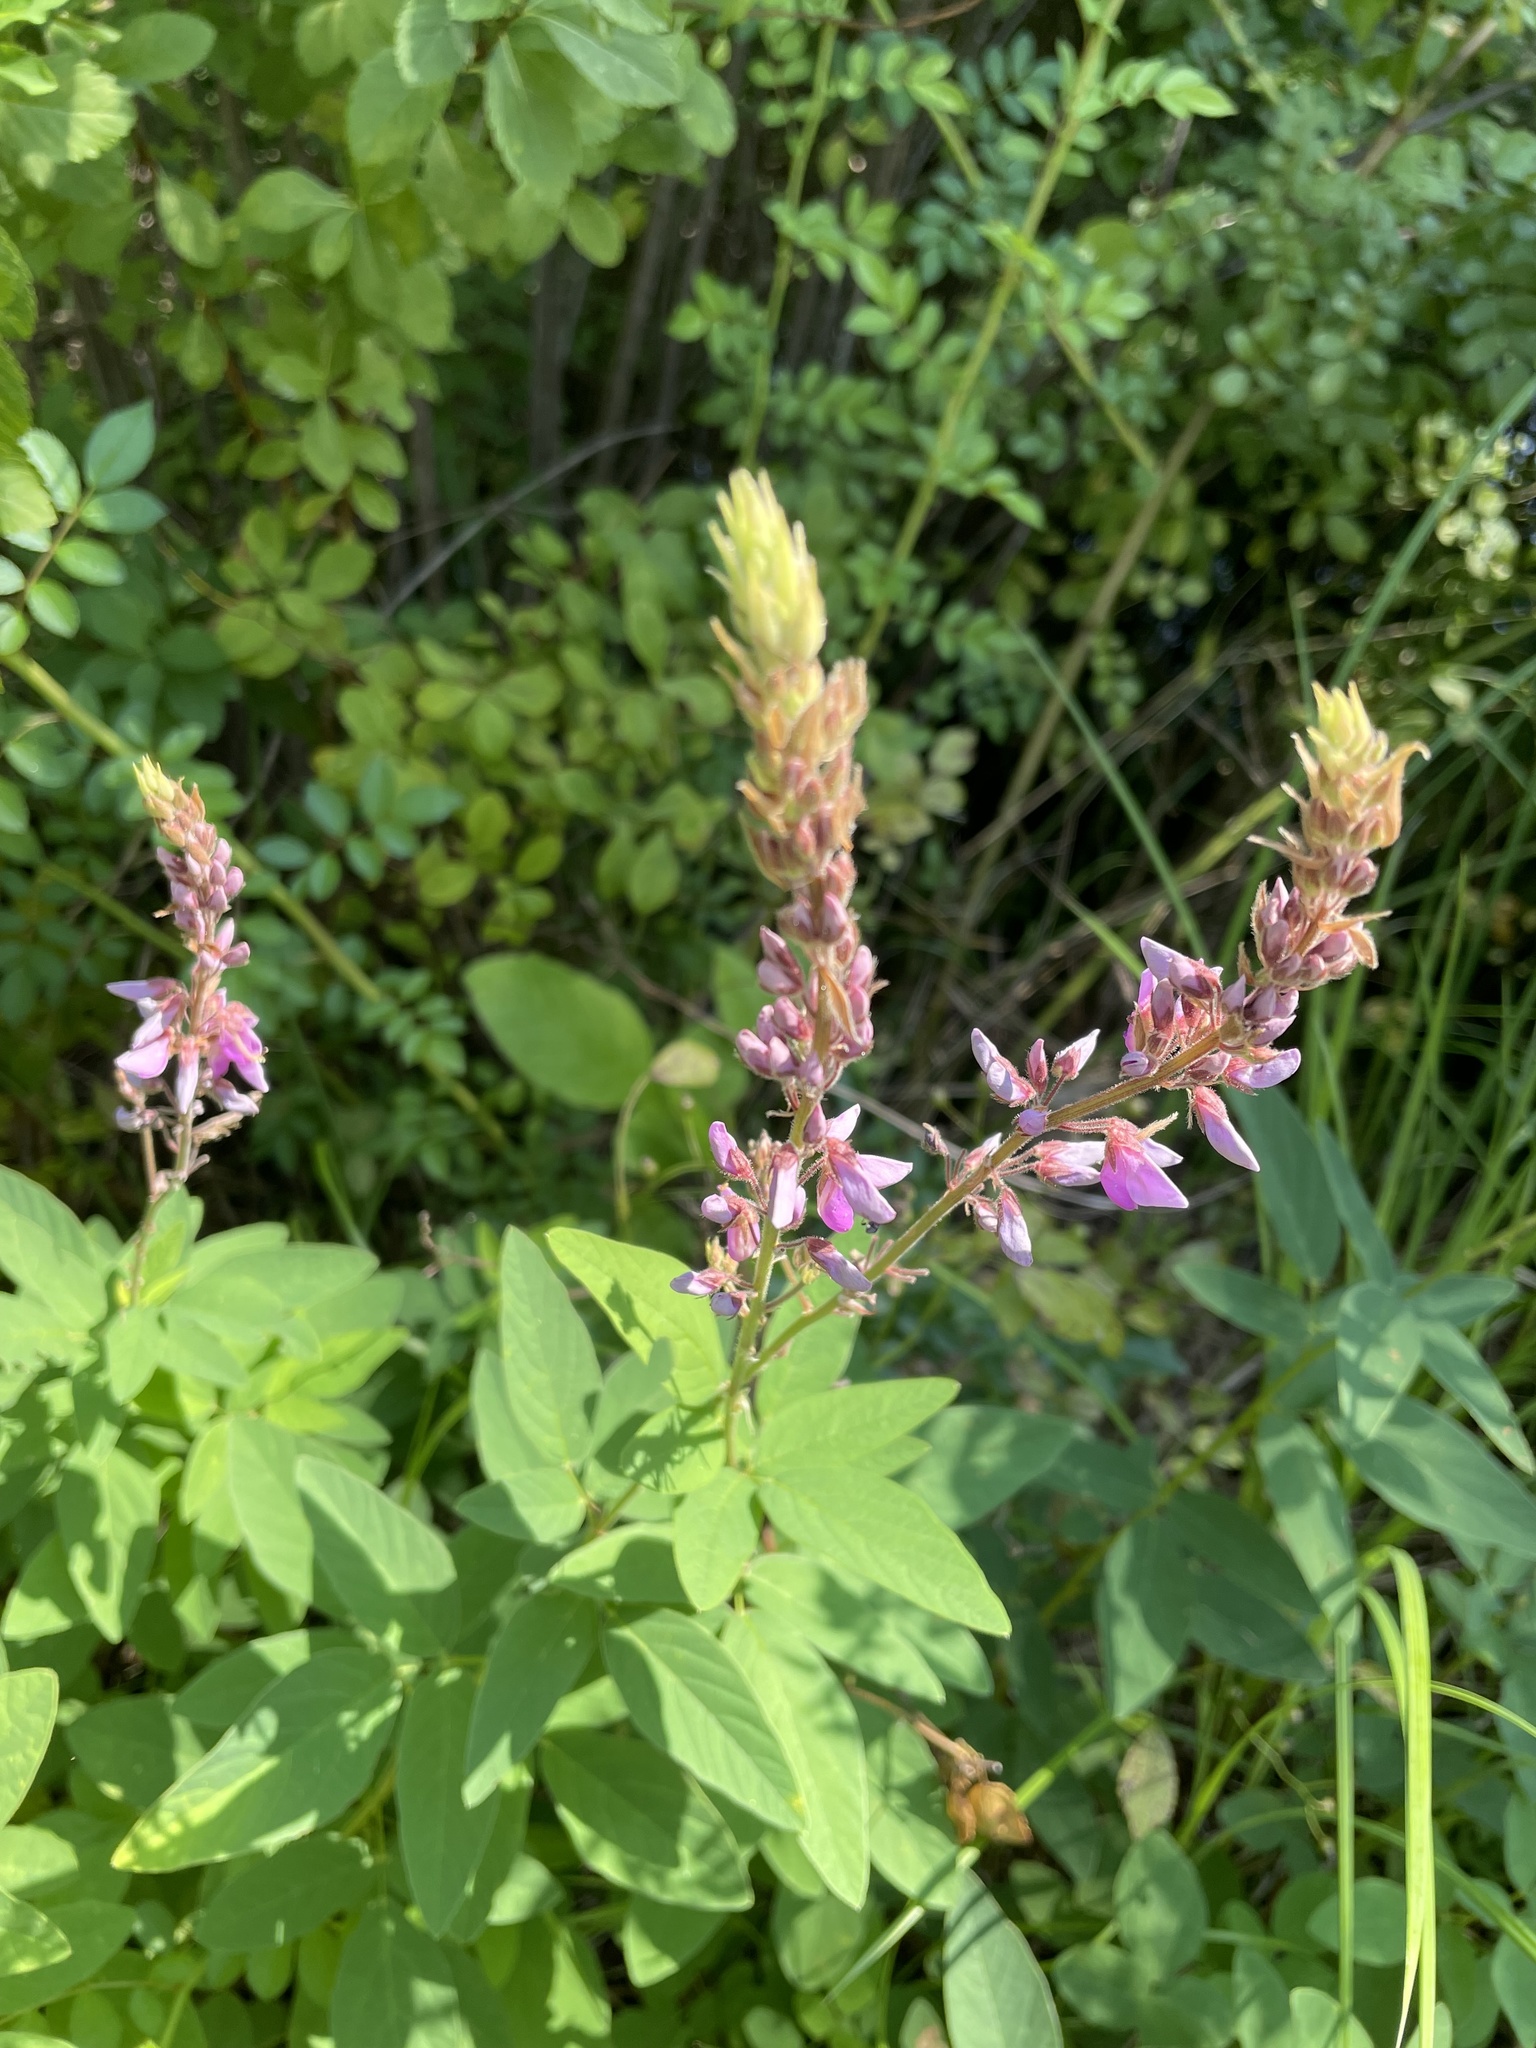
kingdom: Plantae
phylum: Tracheophyta
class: Magnoliopsida
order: Fabales
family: Fabaceae
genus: Desmodium
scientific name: Desmodium canadense
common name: Canada tick-trefoil
